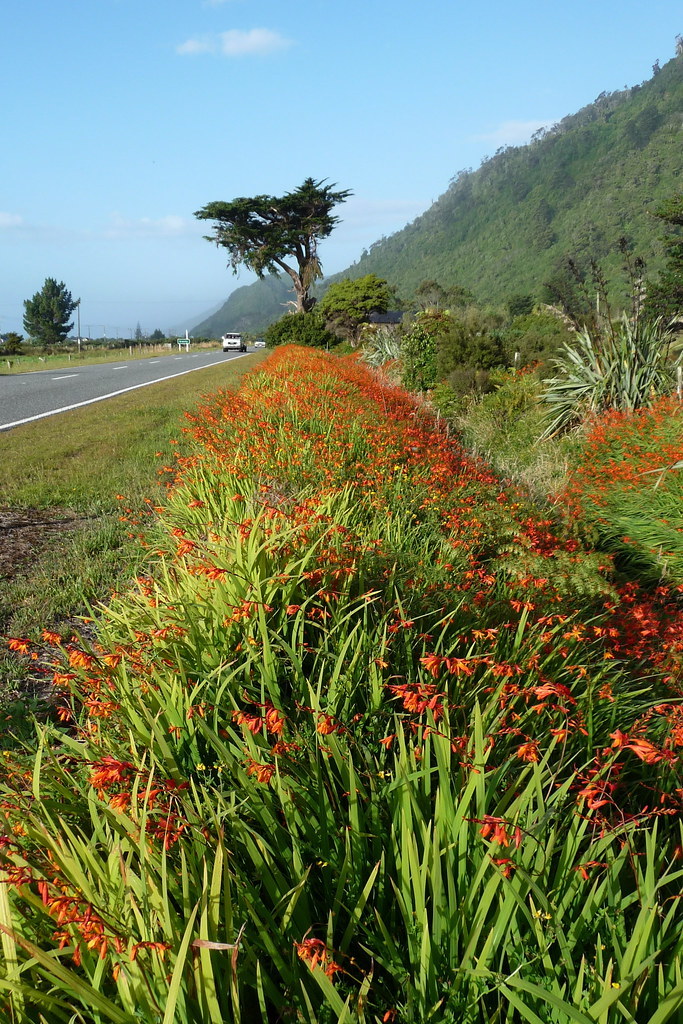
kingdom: Plantae
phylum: Tracheophyta
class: Liliopsida
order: Asparagales
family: Iridaceae
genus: Crocosmia
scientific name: Crocosmia crocosmiiflora
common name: Montbretia
